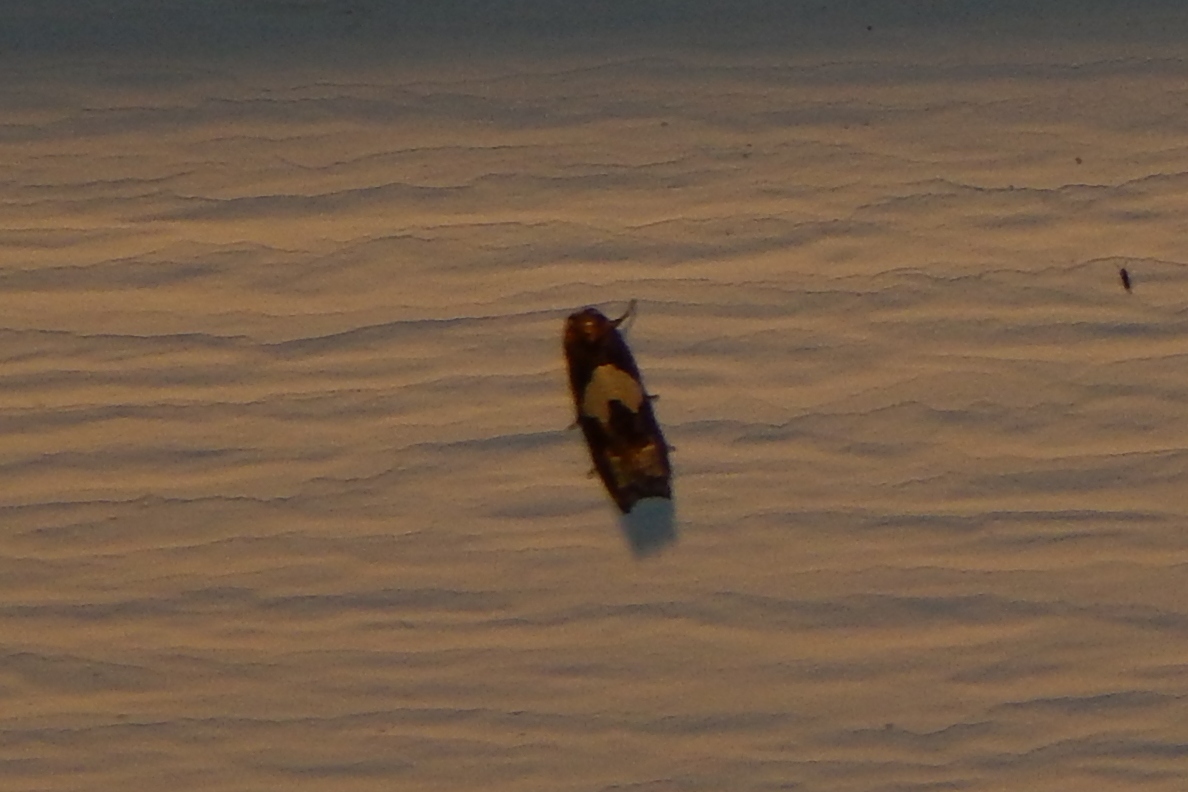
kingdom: Animalia
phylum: Arthropoda
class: Insecta
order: Lepidoptera
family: Tortricidae
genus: Epiblema
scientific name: Epiblema otiosana
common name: Bidens borer moth
